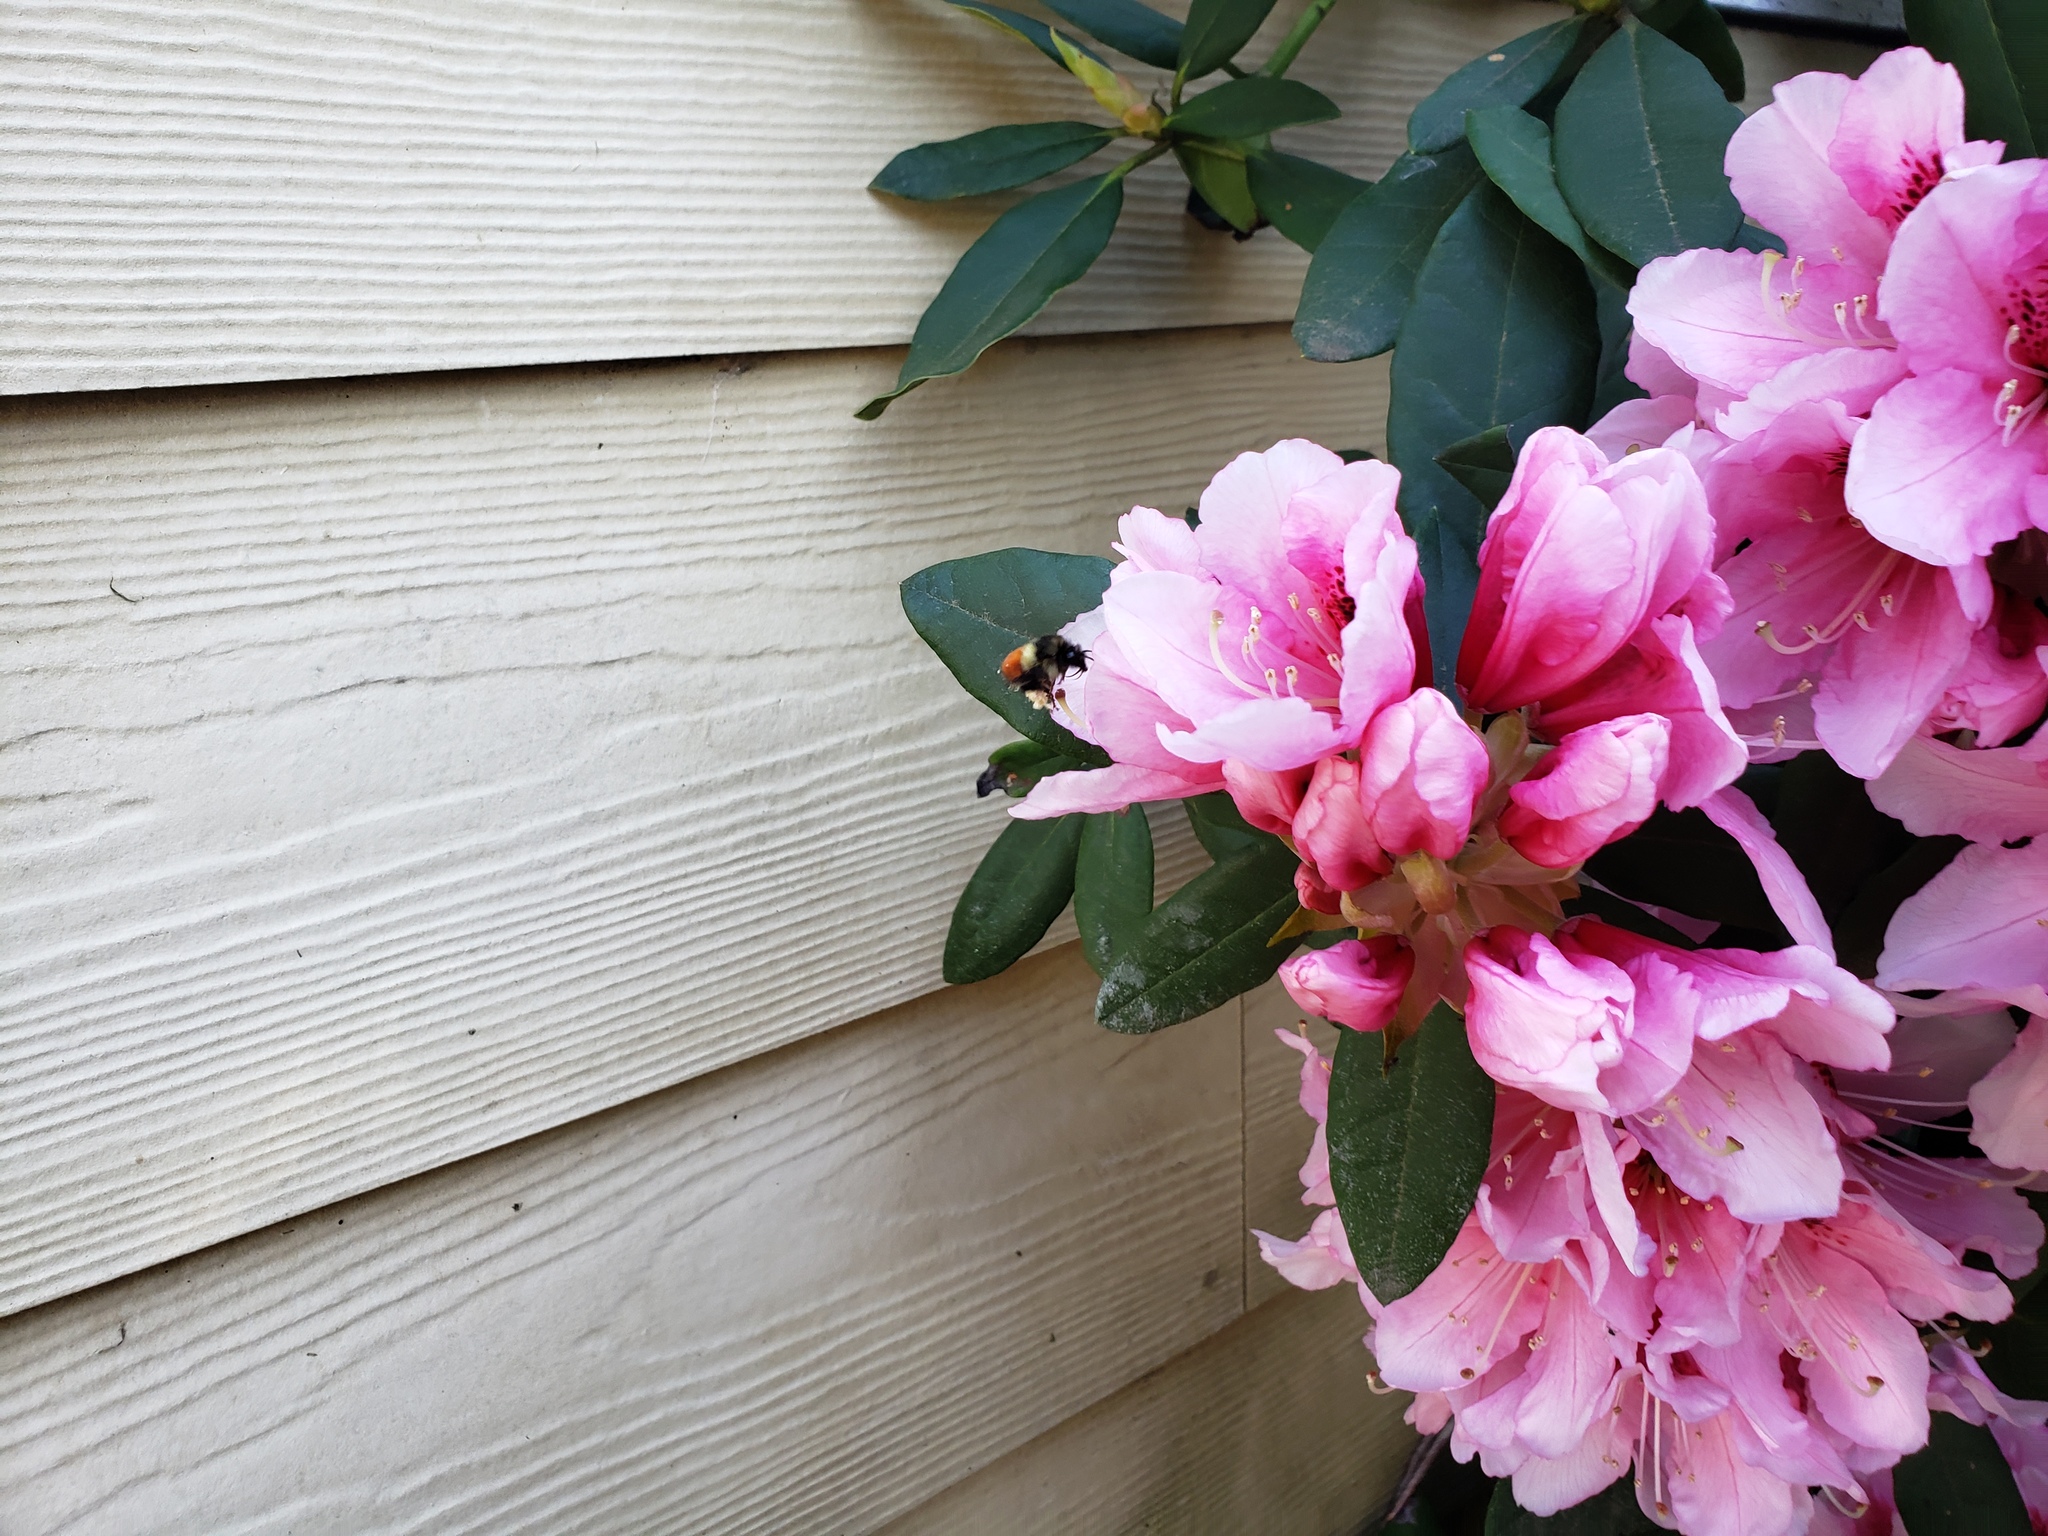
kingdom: Animalia
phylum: Arthropoda
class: Insecta
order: Hymenoptera
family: Apidae
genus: Bombus
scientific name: Bombus melanopygus
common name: Black tail bumble bee
